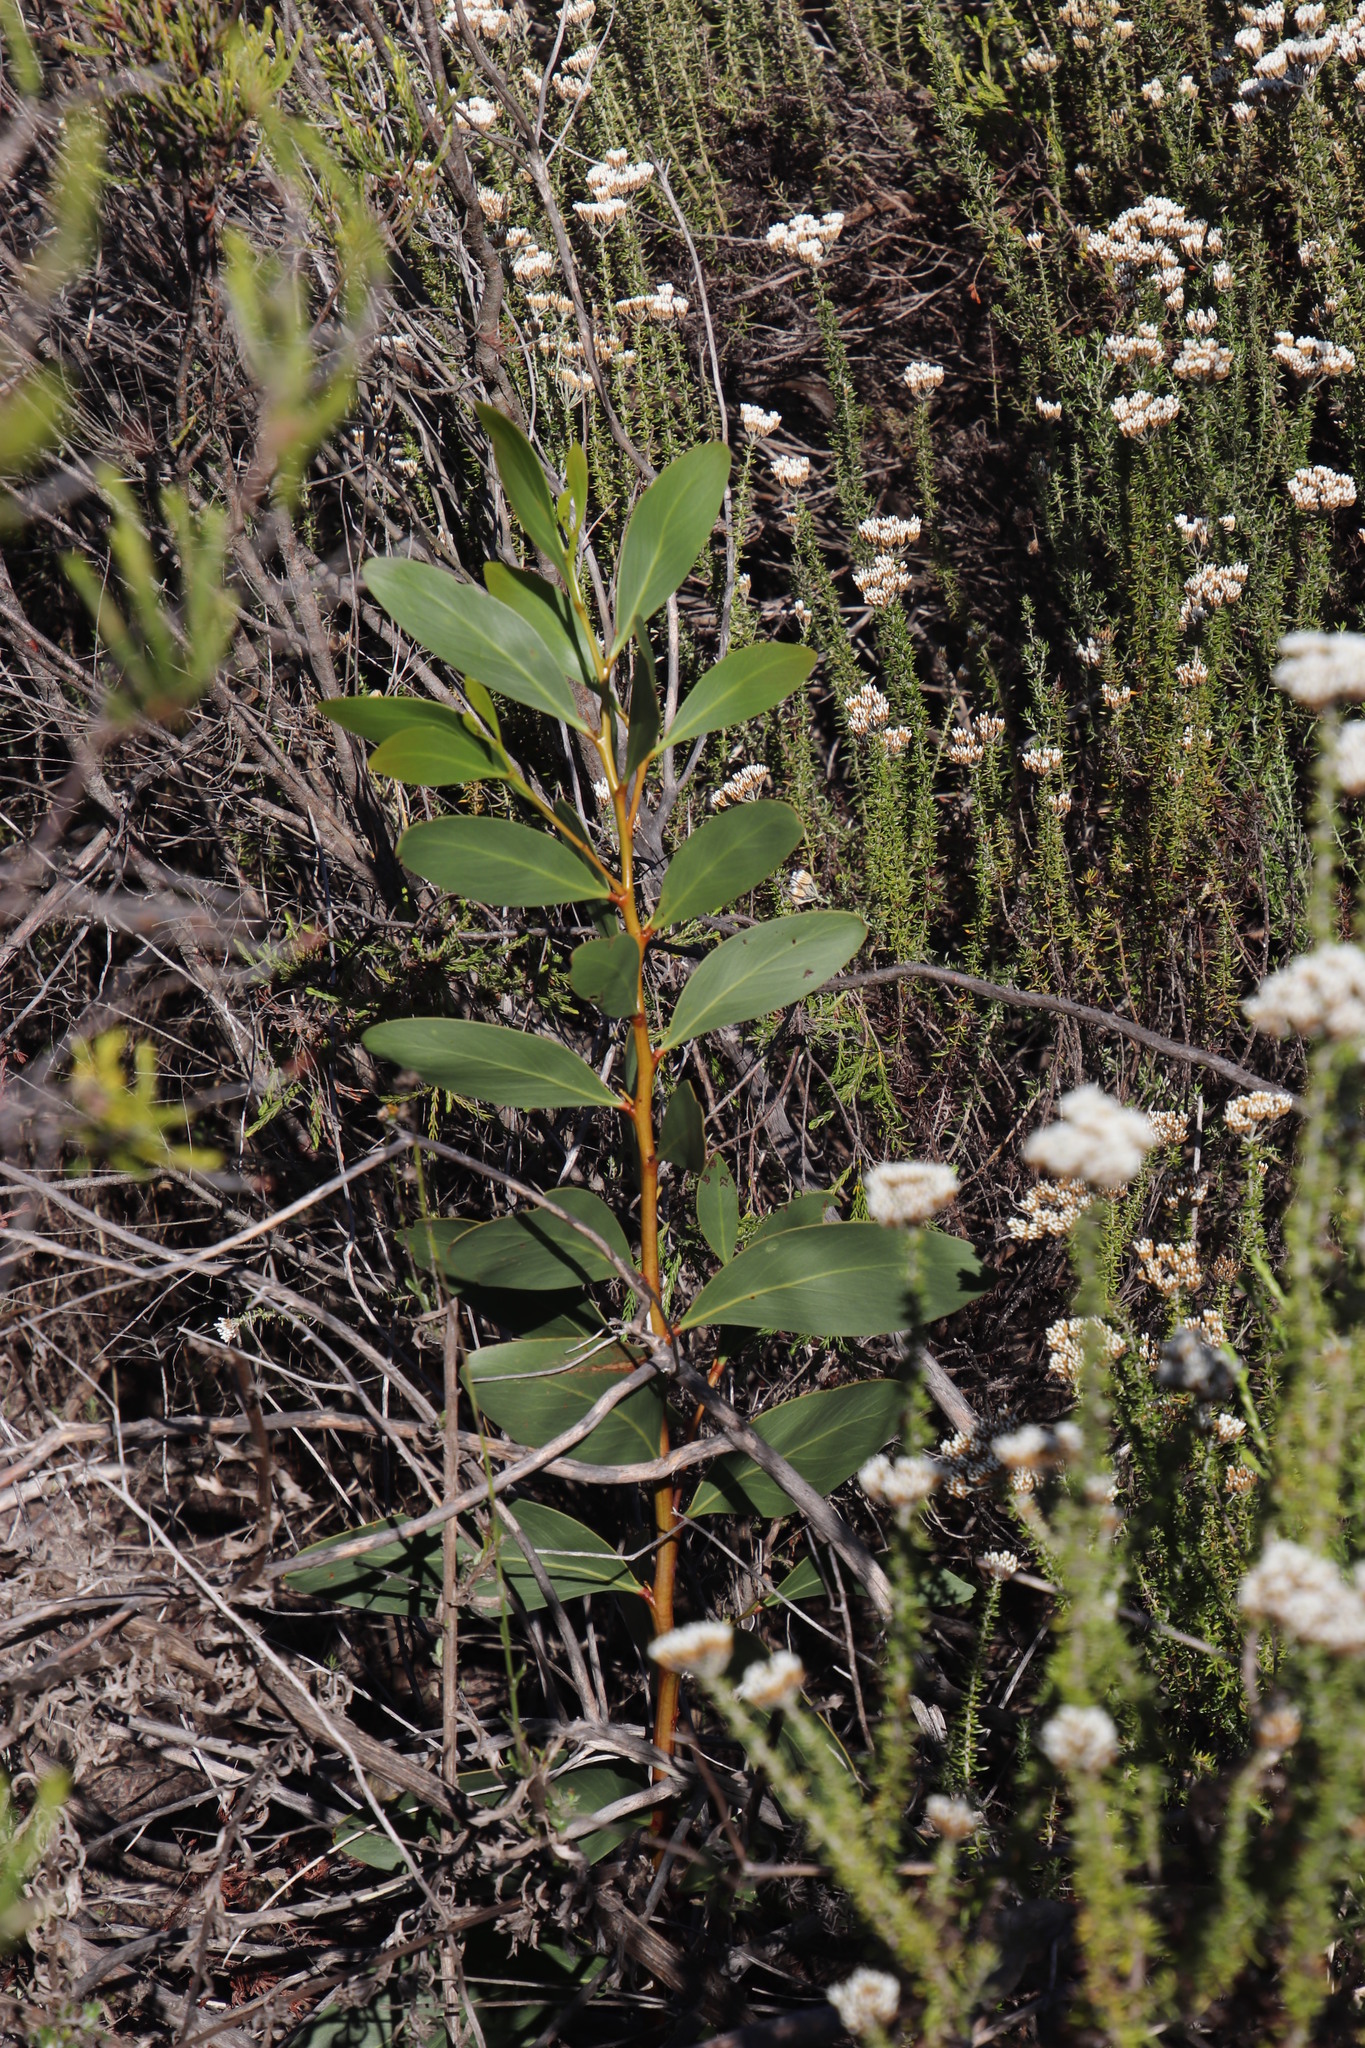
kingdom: Plantae
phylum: Tracheophyta
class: Magnoliopsida
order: Fabales
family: Fabaceae
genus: Acacia
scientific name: Acacia pycnantha
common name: Golden wattle
